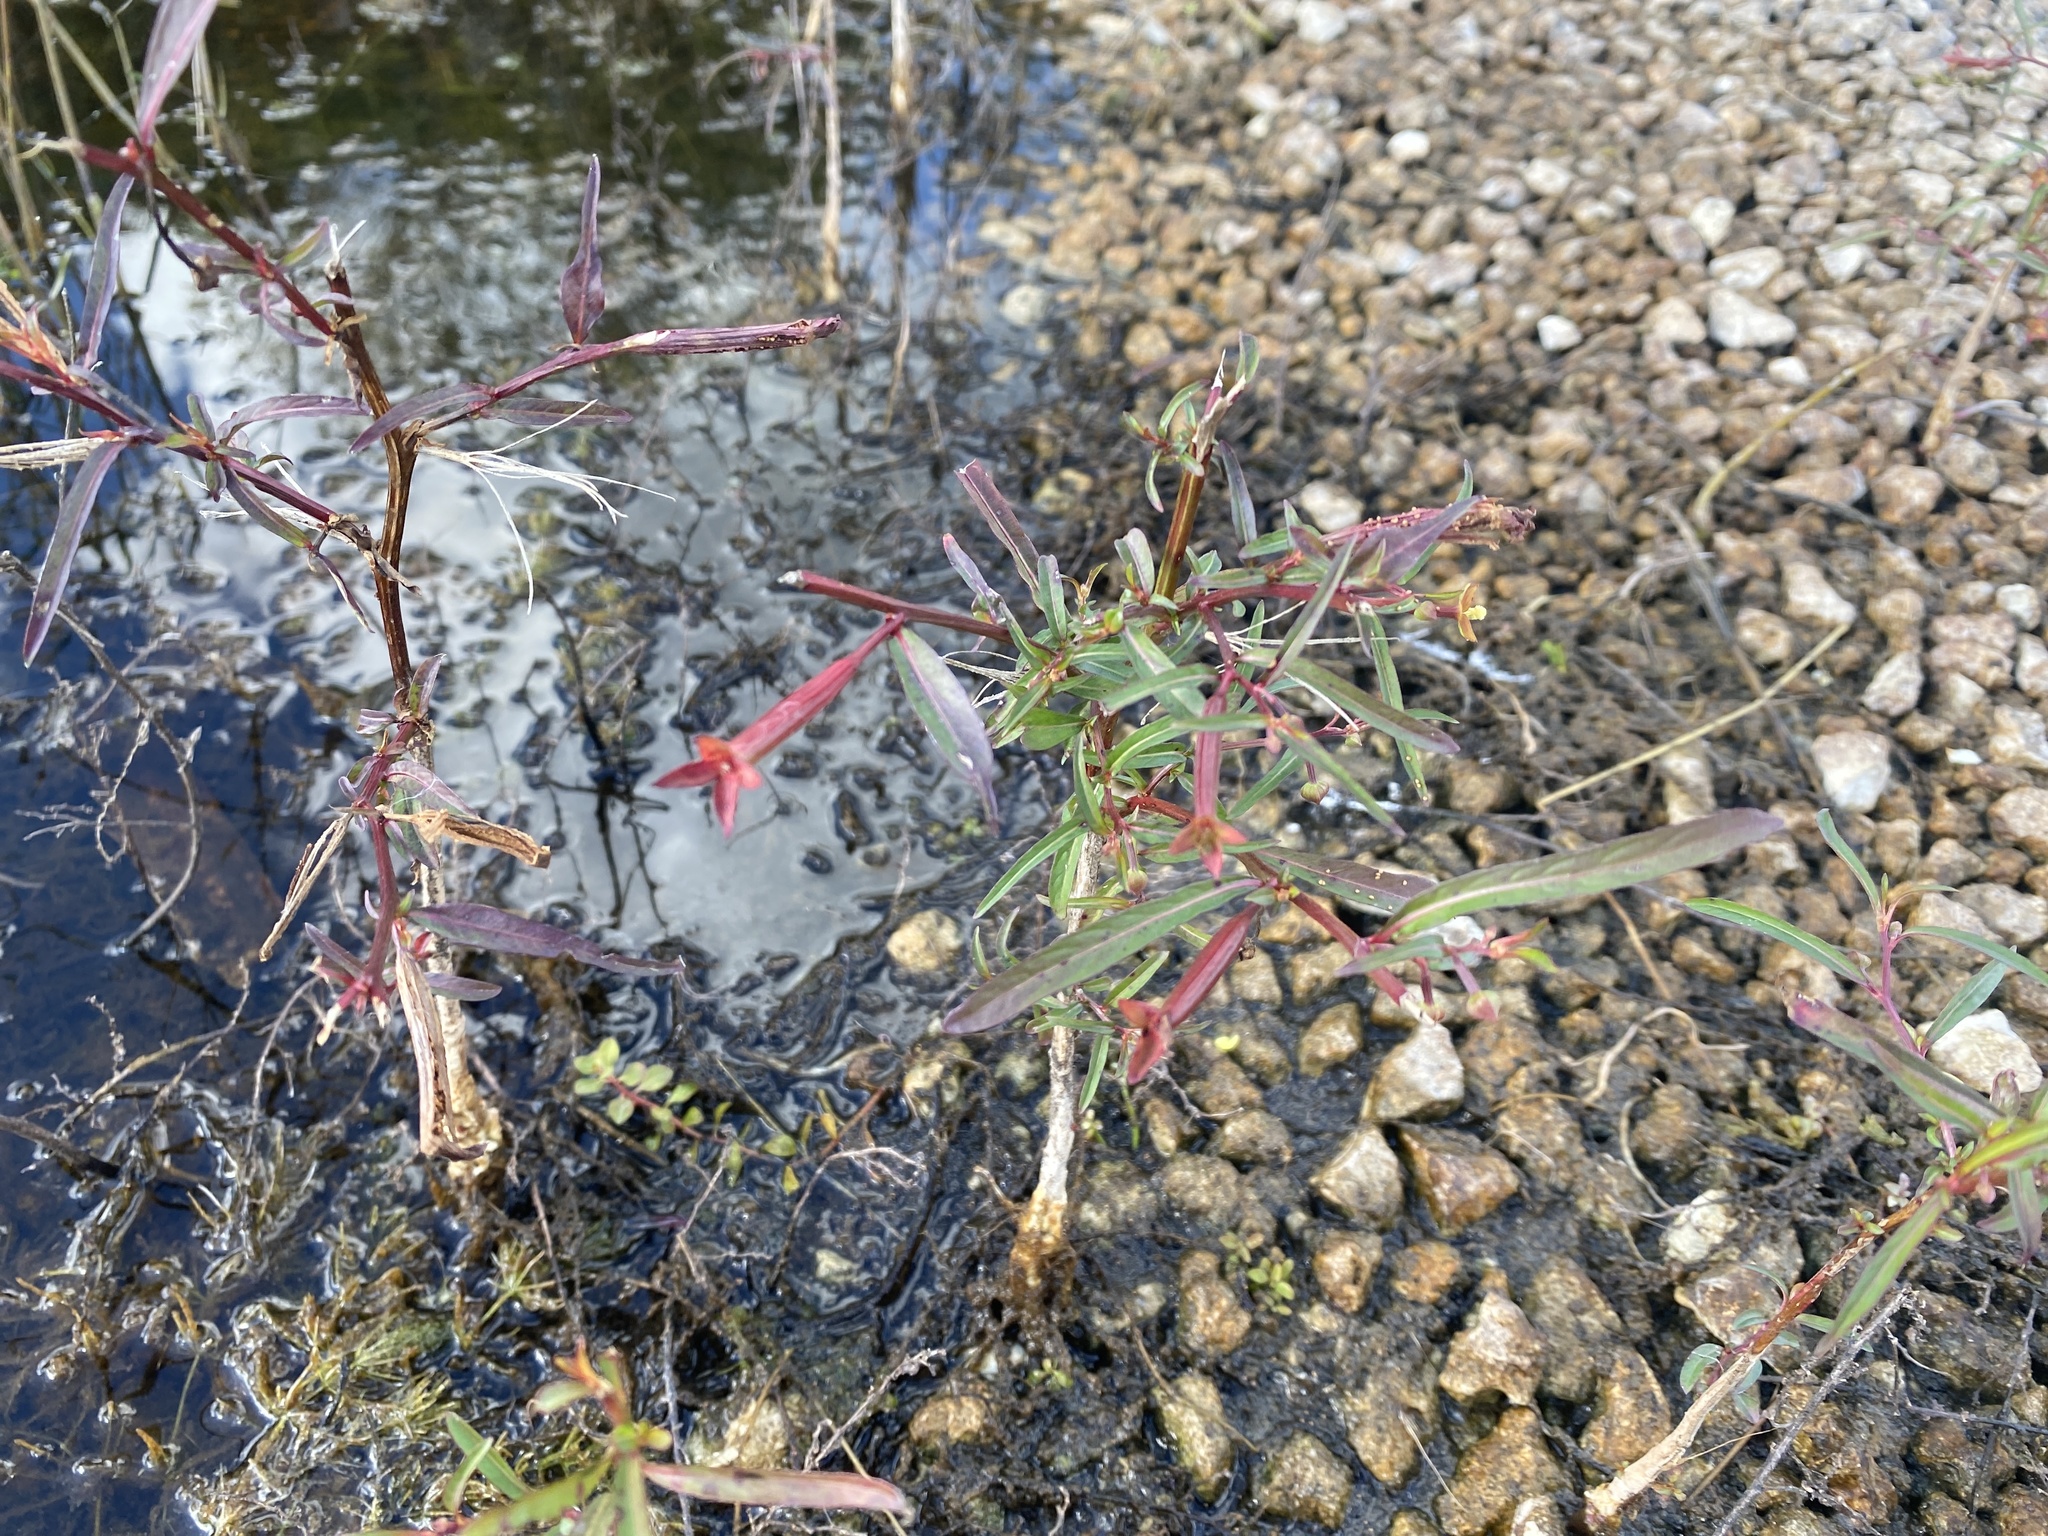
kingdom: Plantae
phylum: Tracheophyta
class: Magnoliopsida
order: Myrtales
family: Onagraceae
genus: Ludwigia
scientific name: Ludwigia leptocarpa
